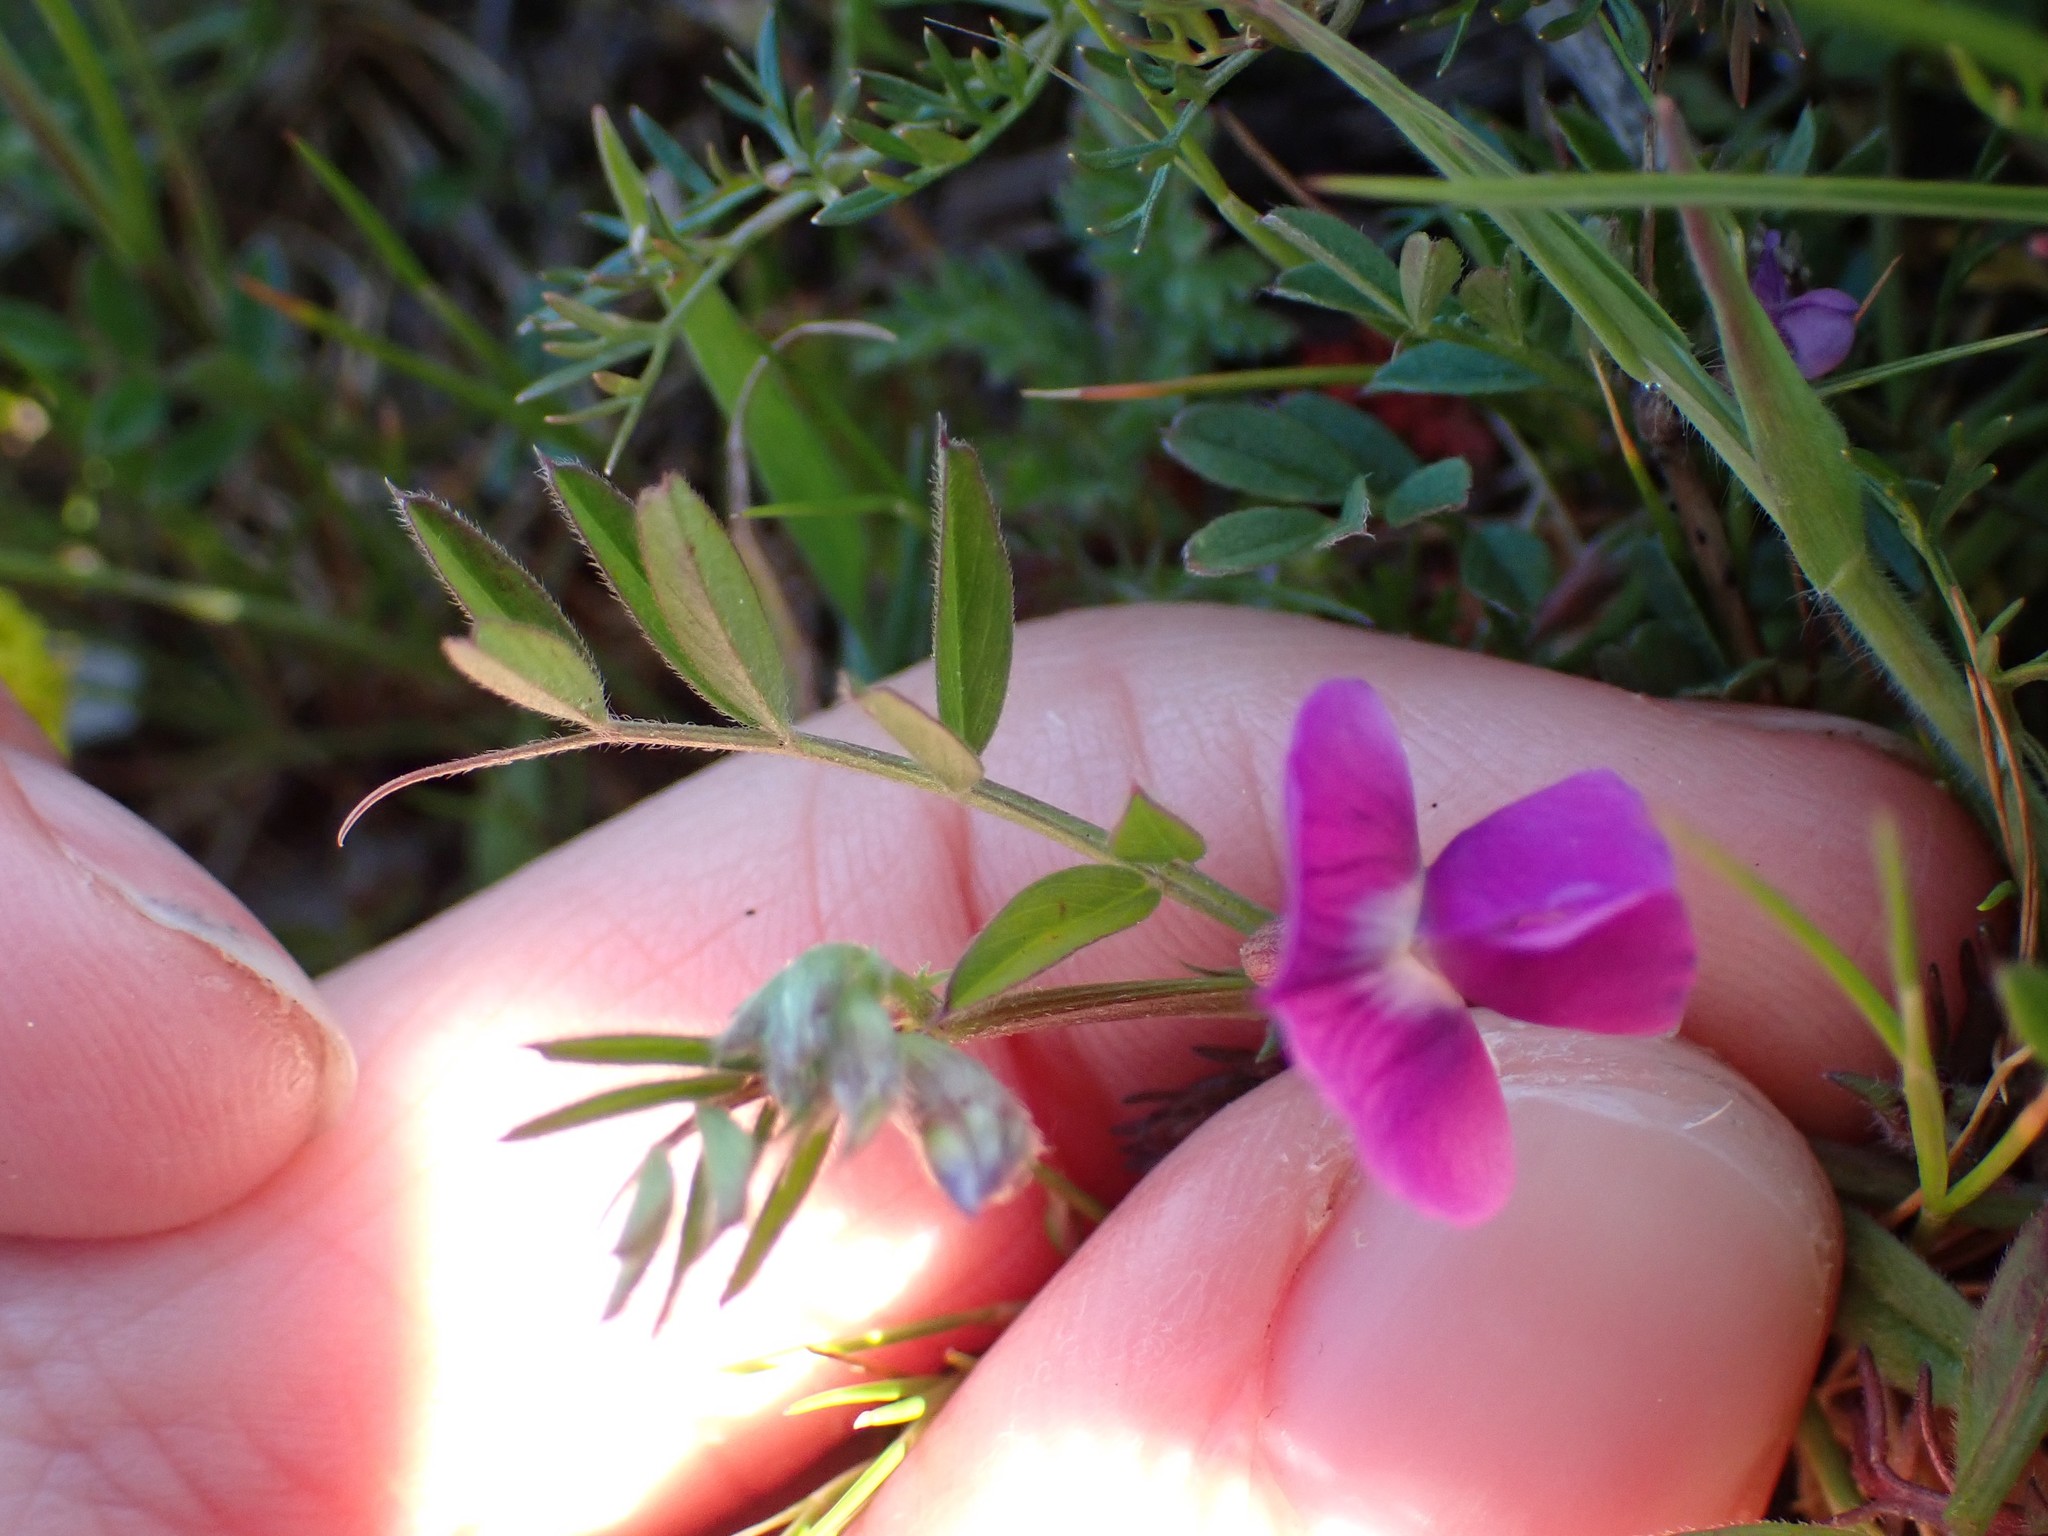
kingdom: Plantae
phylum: Tracheophyta
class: Magnoliopsida
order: Fabales
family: Fabaceae
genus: Vicia
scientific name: Vicia sativa
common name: Garden vetch
